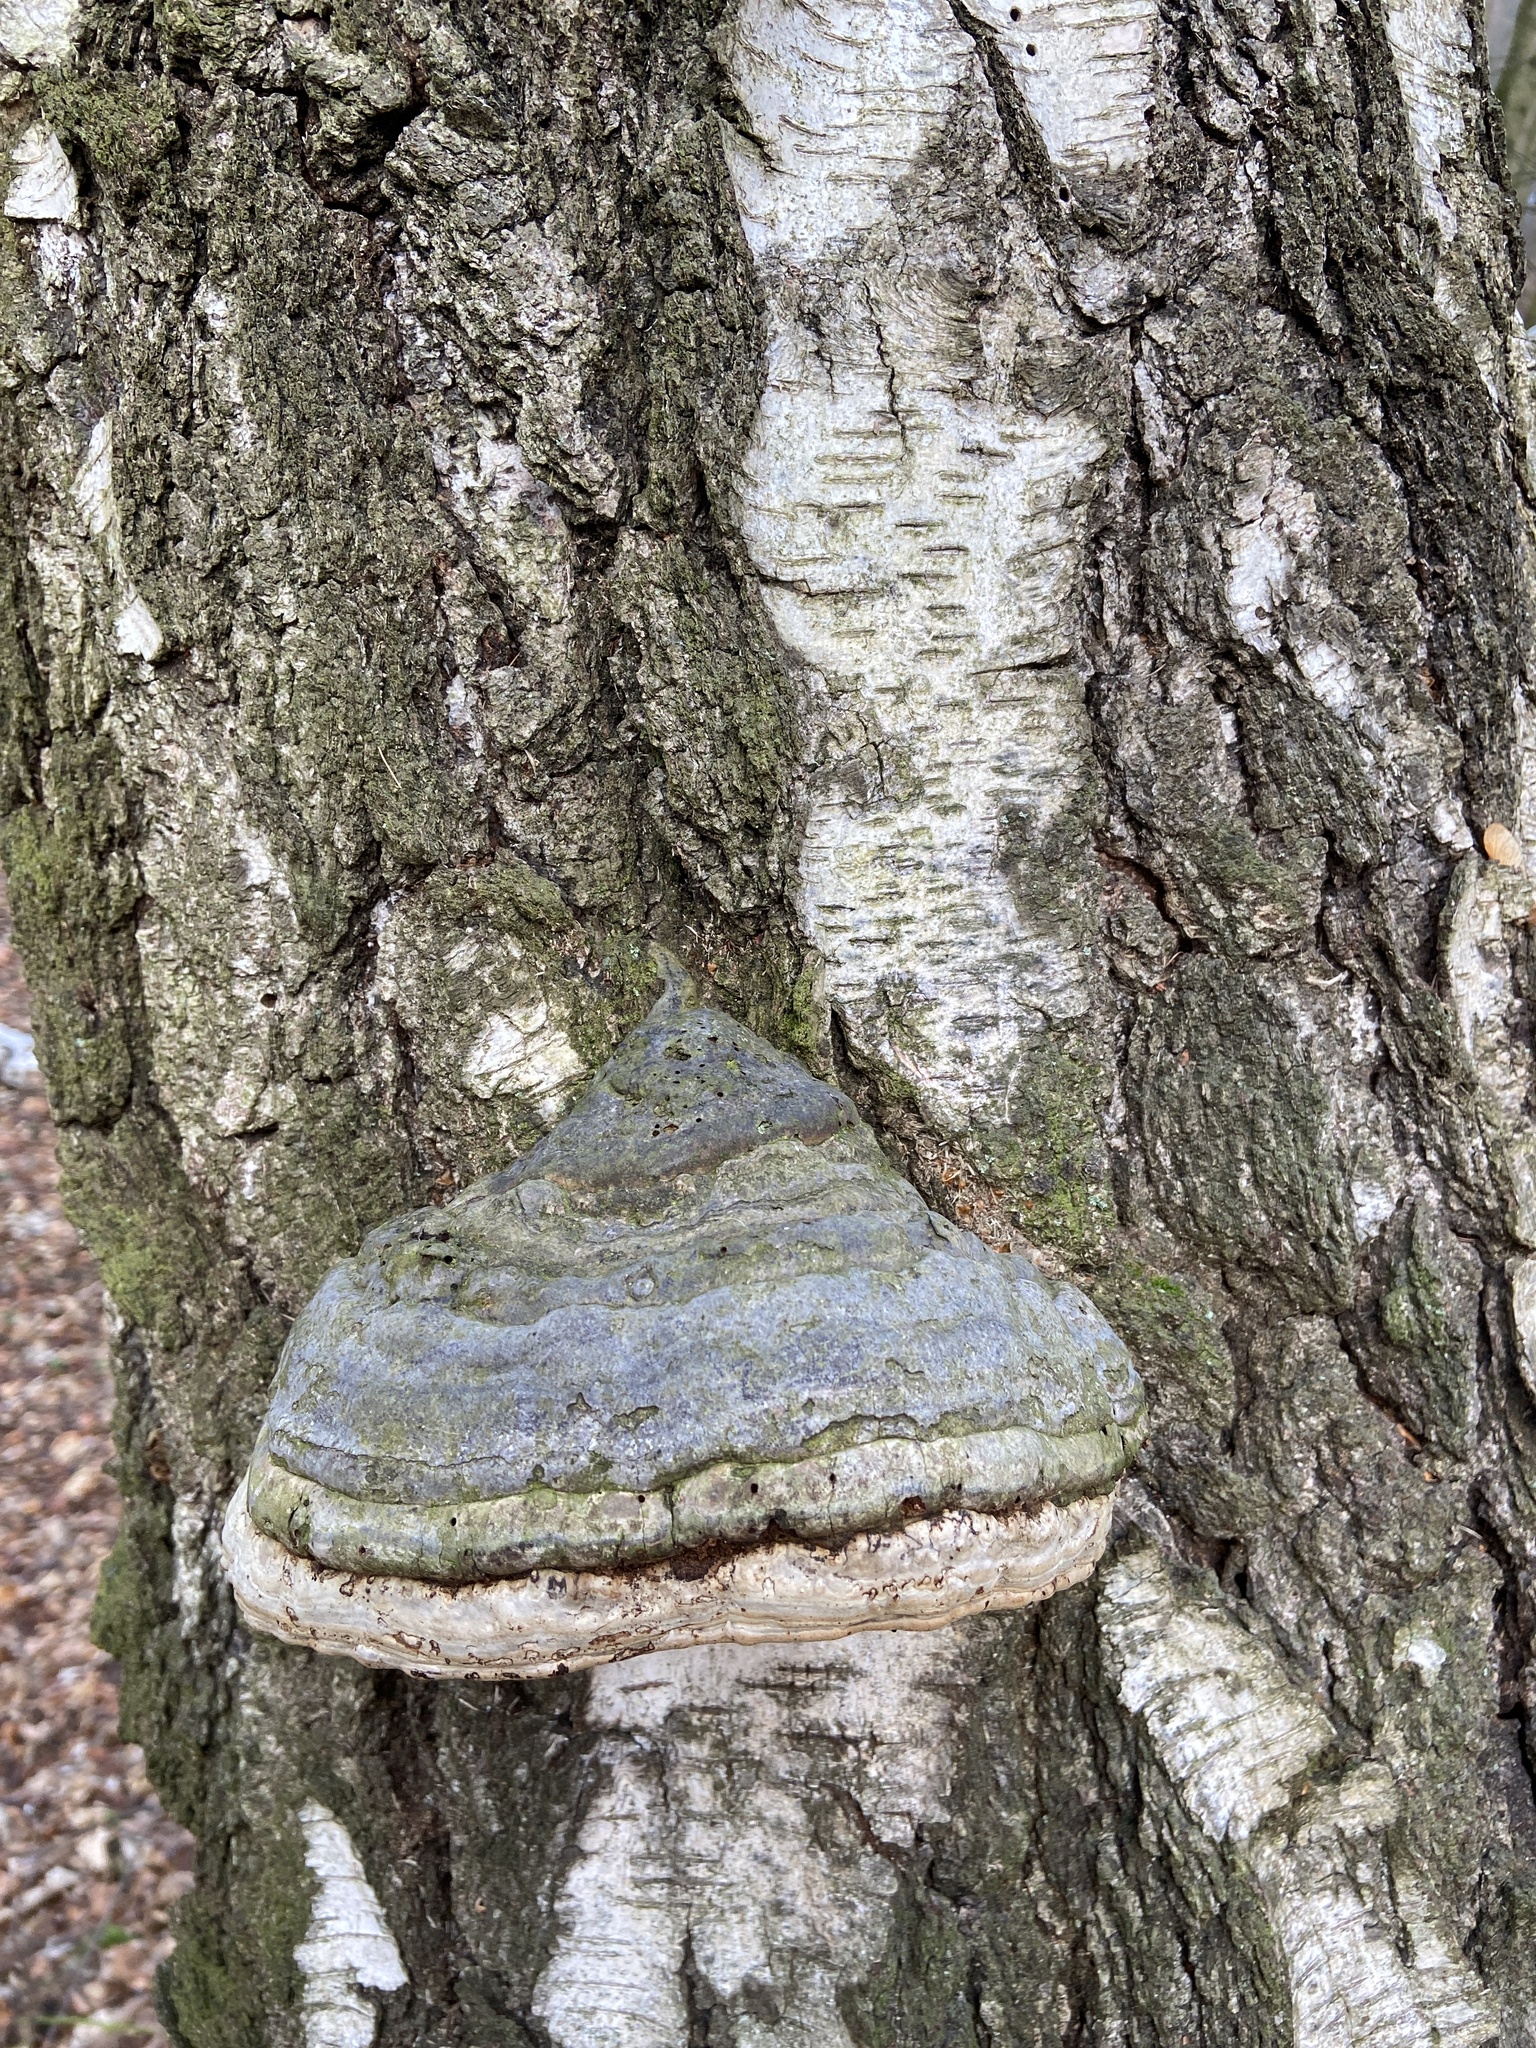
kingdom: Fungi
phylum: Basidiomycota
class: Agaricomycetes
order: Polyporales
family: Polyporaceae
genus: Fomes
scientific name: Fomes fomentarius
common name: Hoof fungus
